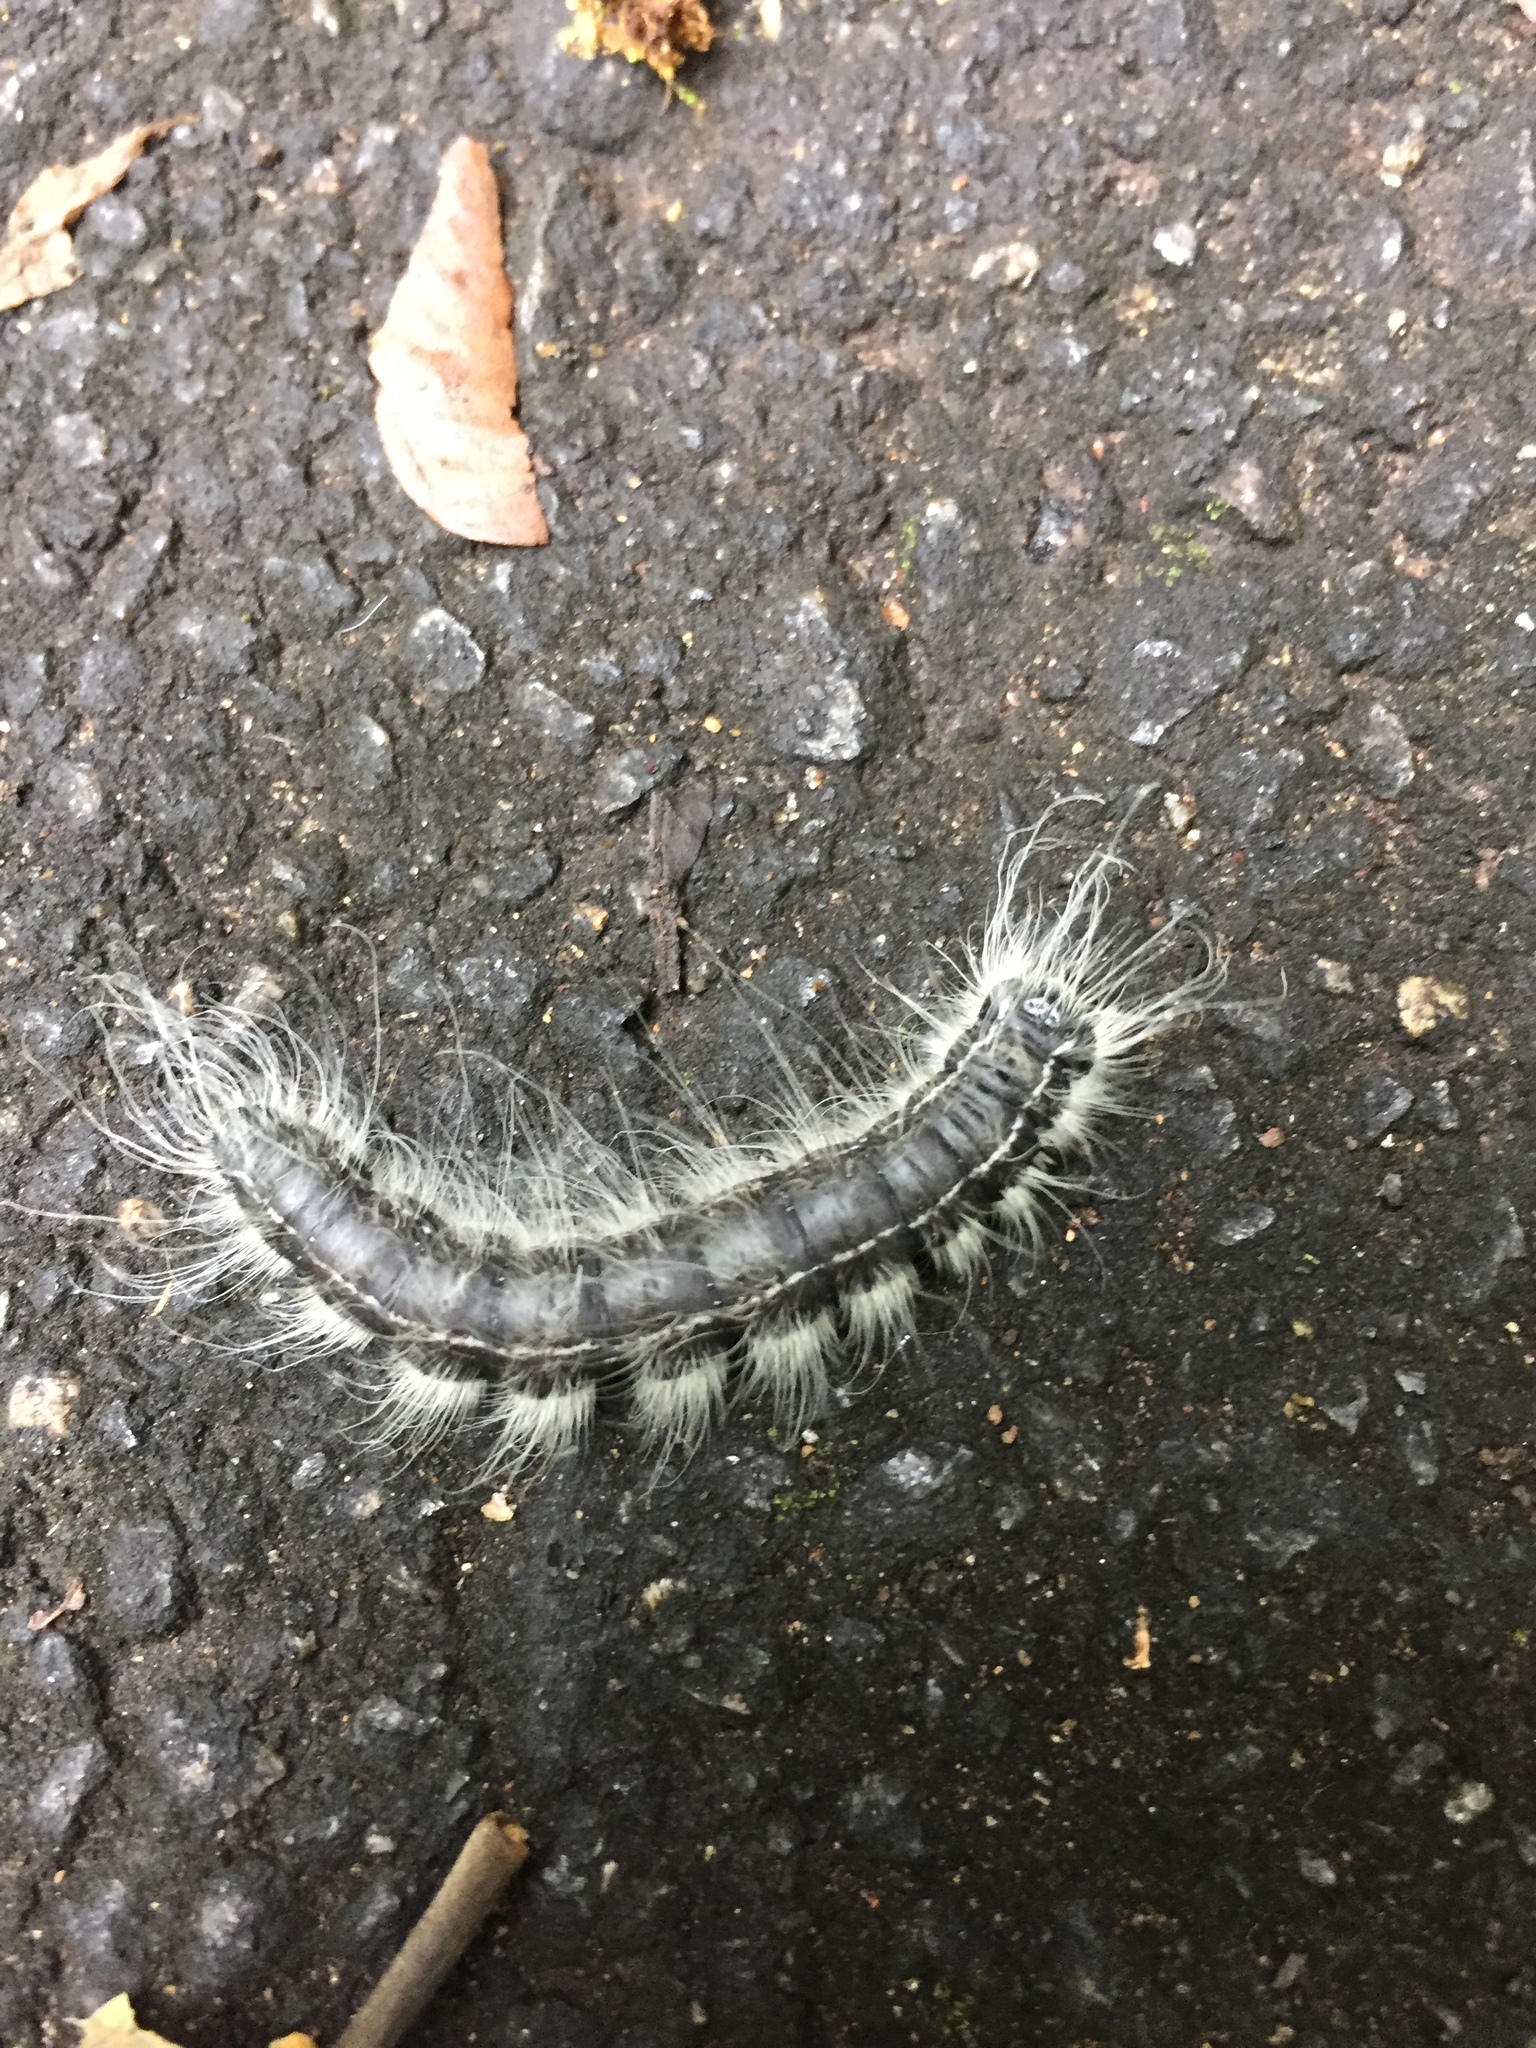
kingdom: Animalia
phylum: Arthropoda
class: Insecta
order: Lepidoptera
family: Notodontidae
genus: Datana
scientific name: Datana integerrima
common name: Walnut caterpillar
